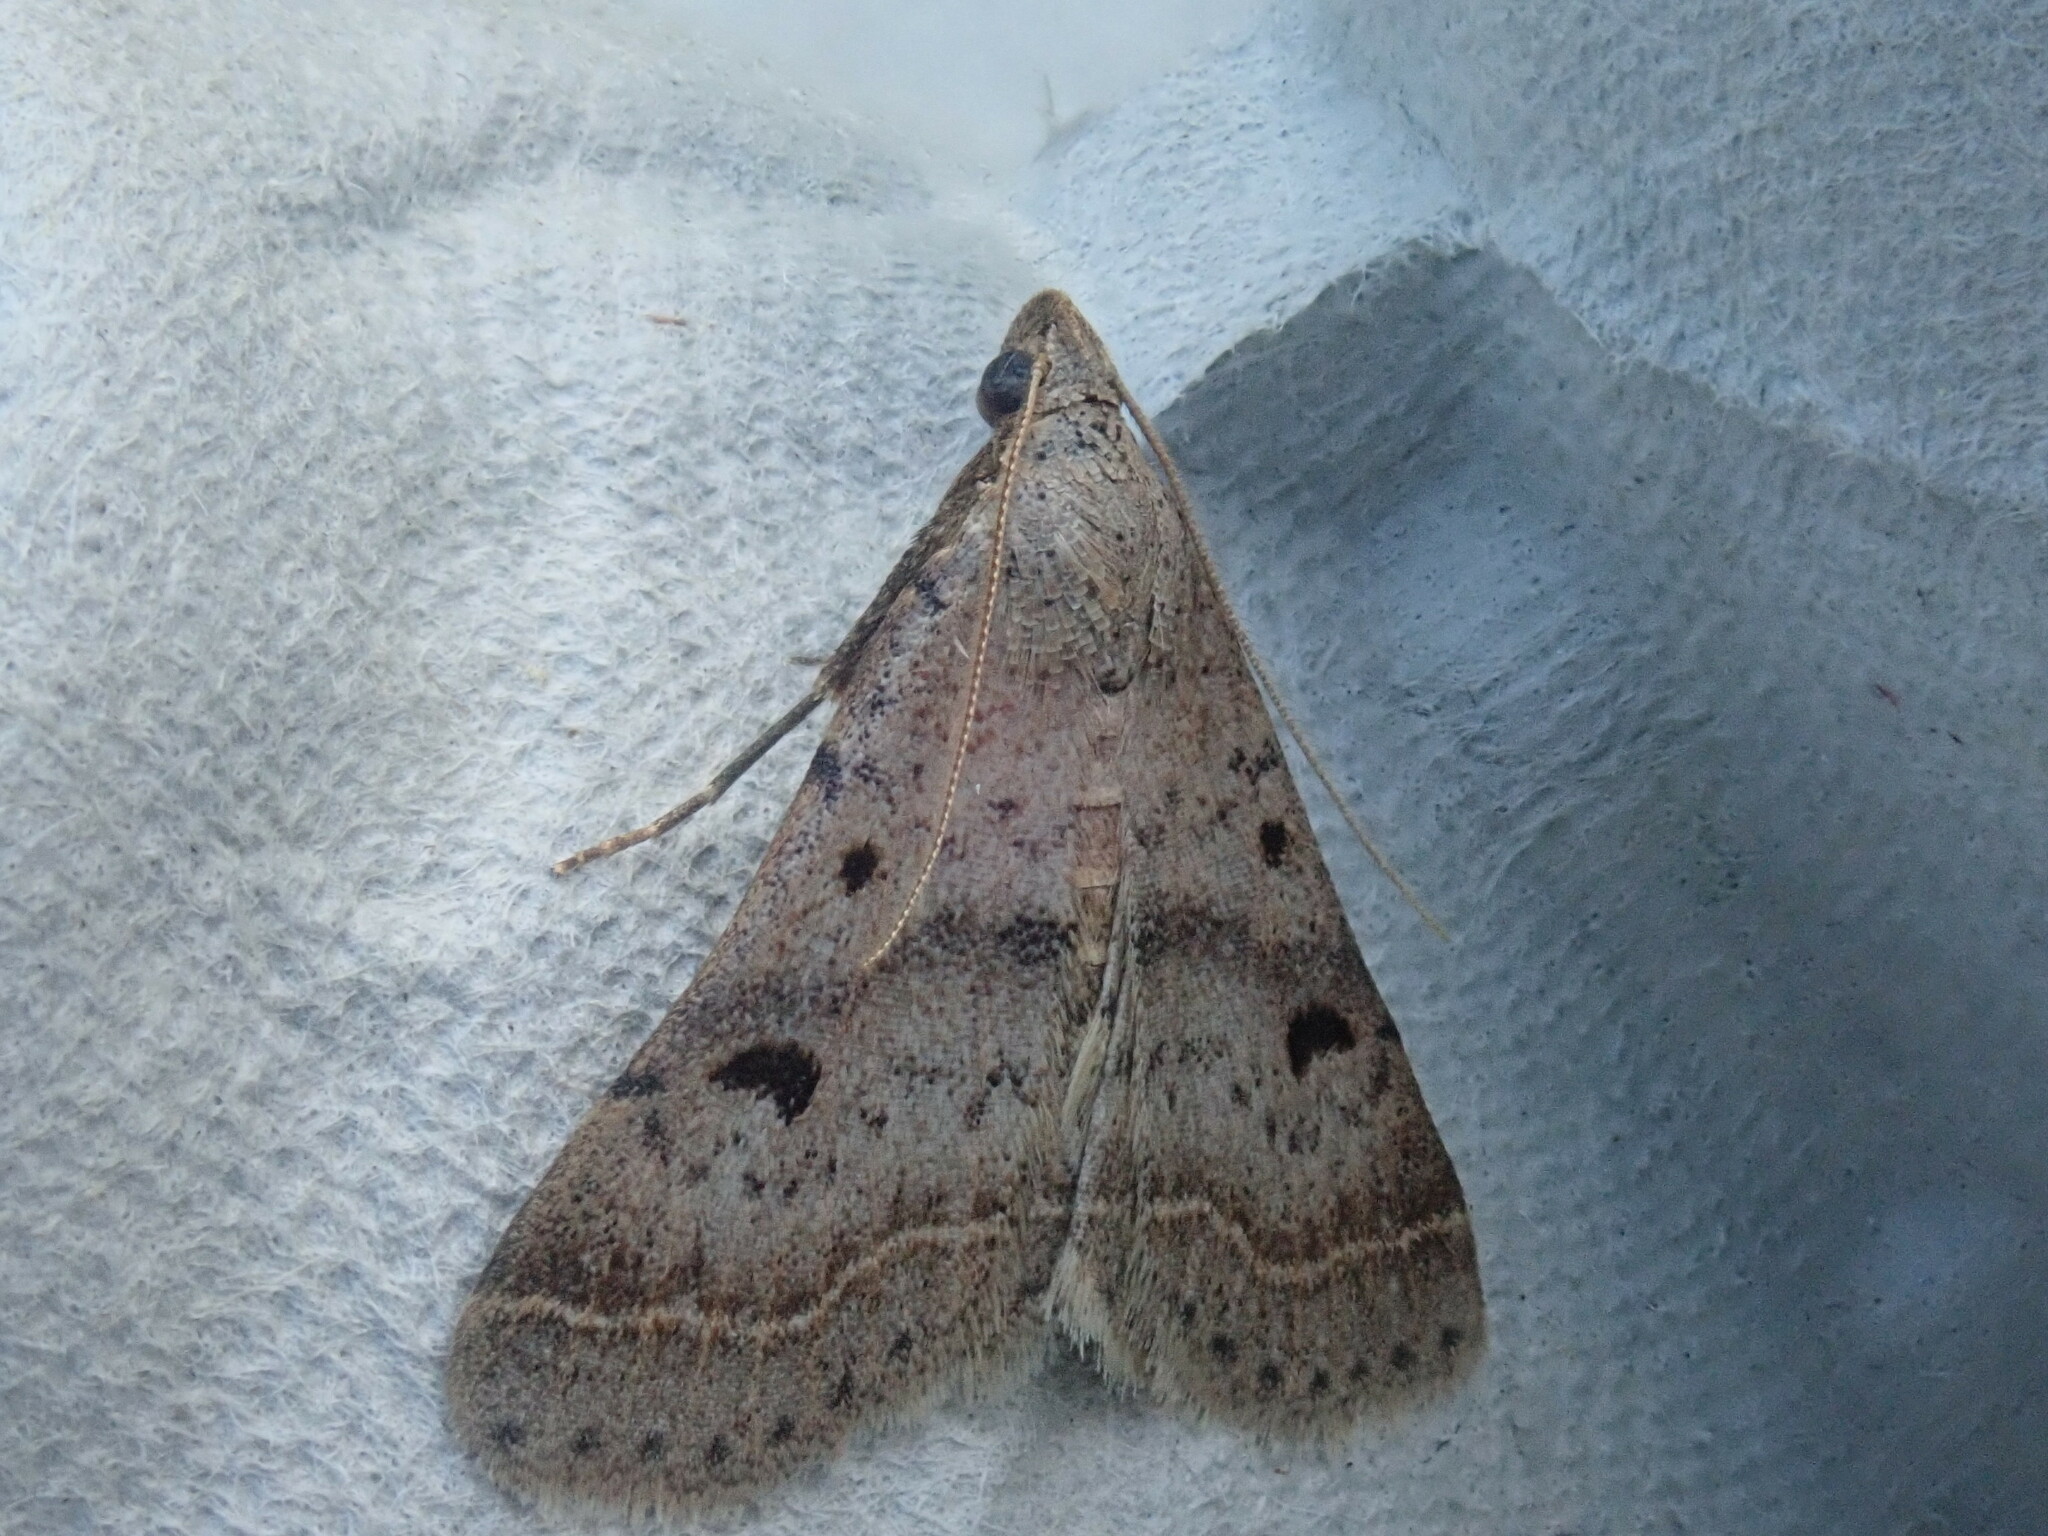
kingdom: Animalia
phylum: Arthropoda
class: Insecta
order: Lepidoptera
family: Erebidae
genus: Bleptina
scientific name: Bleptina caradrinalis
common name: Bent-winged owlet
